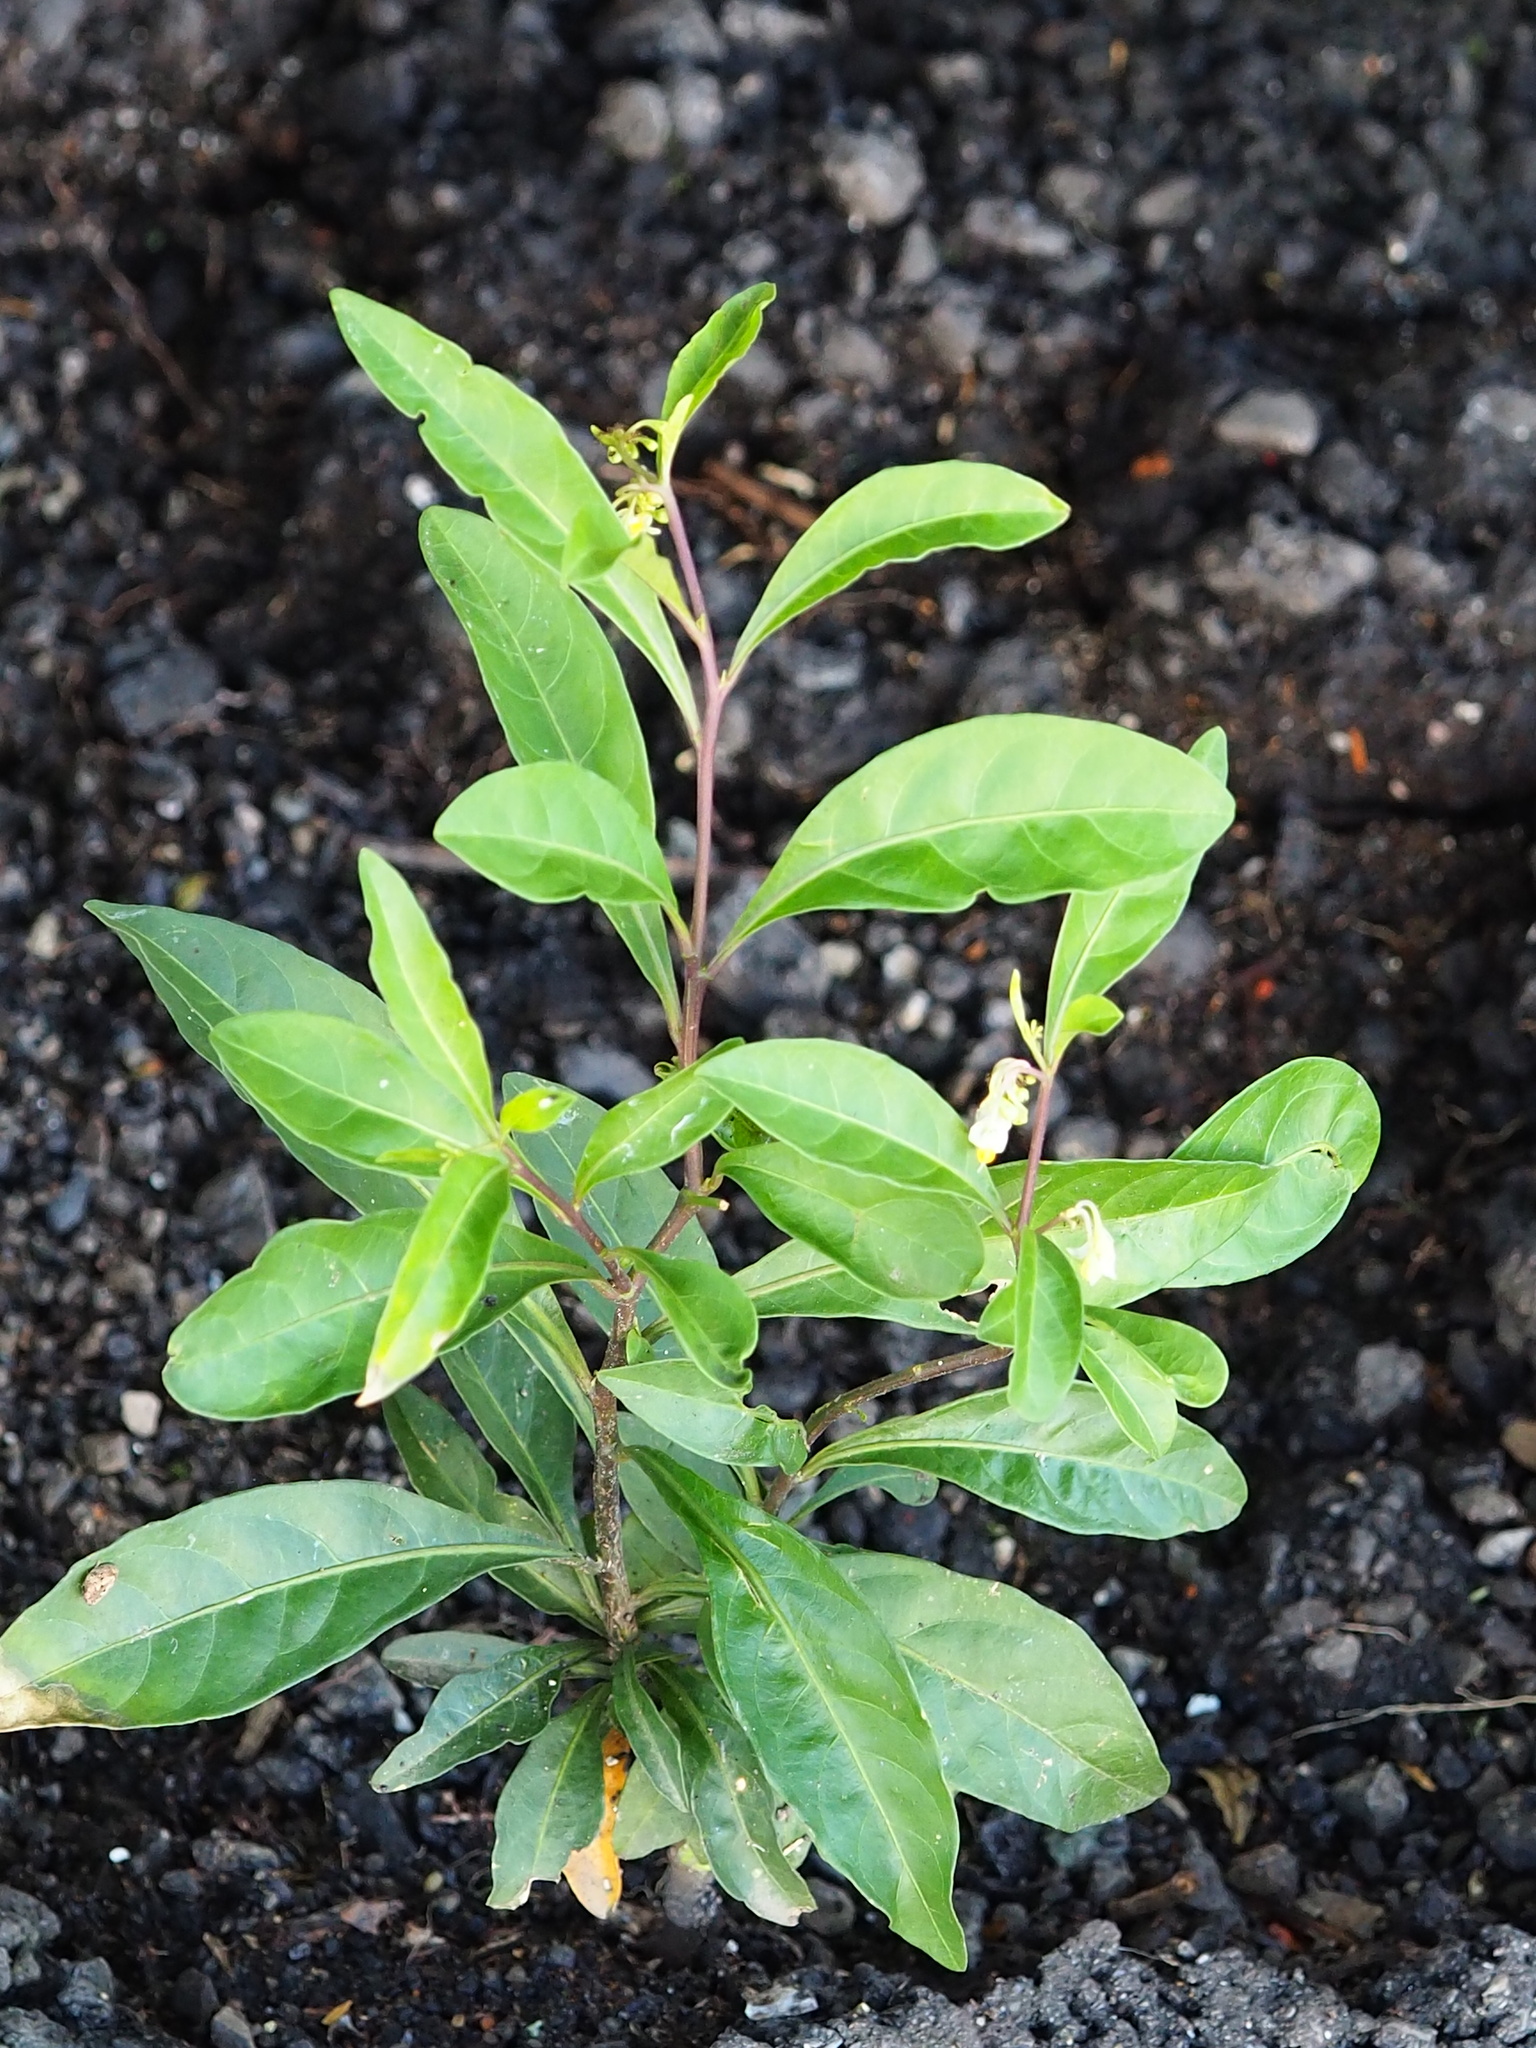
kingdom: Plantae
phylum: Tracheophyta
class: Magnoliopsida
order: Solanales
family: Solanaceae
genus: Solanum
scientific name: Solanum diphyllum
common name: Twoleaf nightshade
